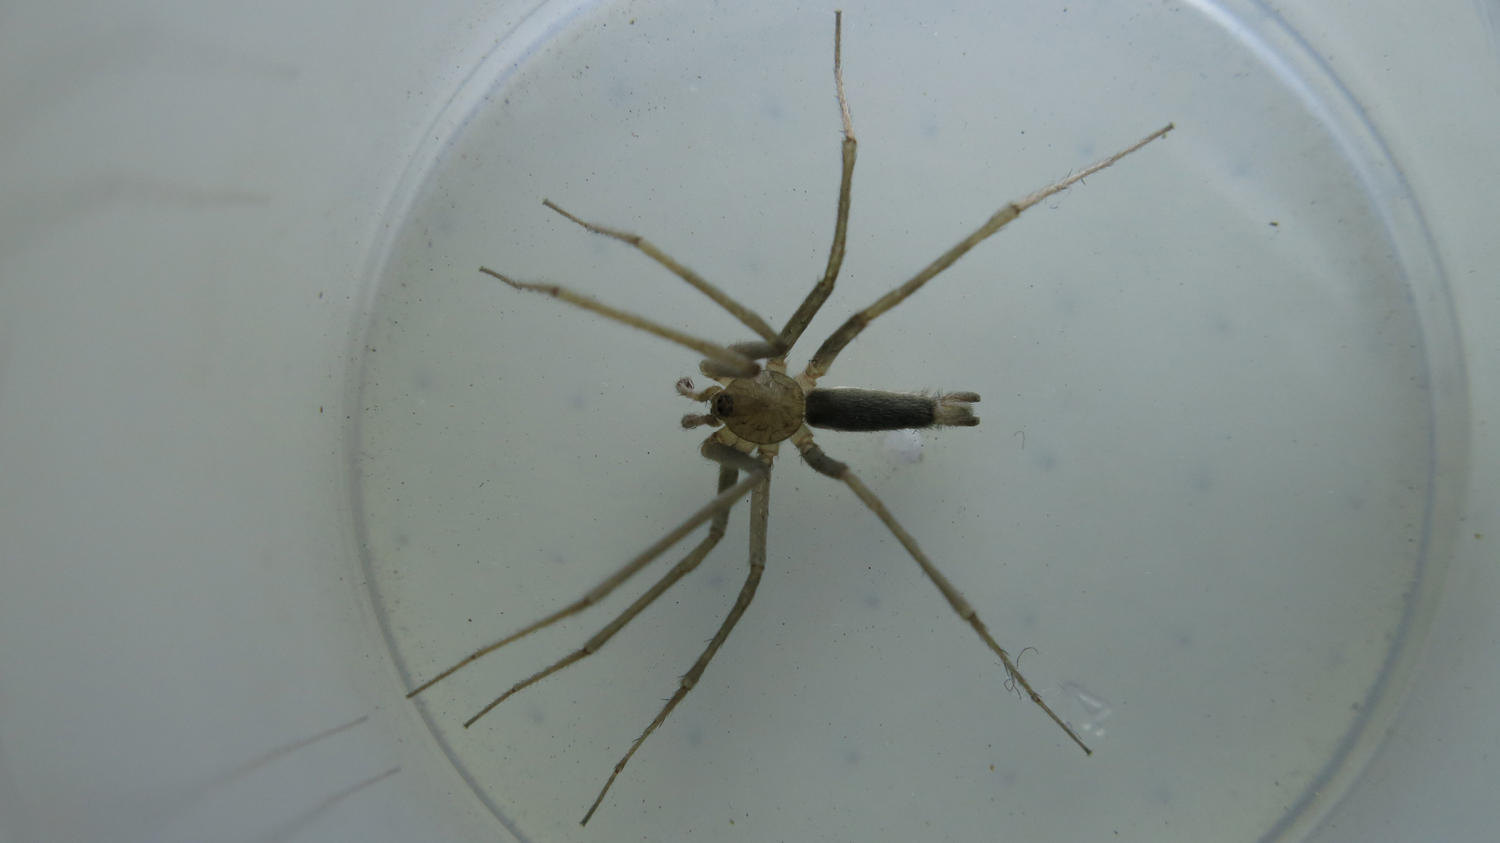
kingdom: Animalia
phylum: Arthropoda
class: Arachnida
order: Araneae
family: Cithaeronidae
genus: Cithaeron
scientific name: Cithaeron contentum
